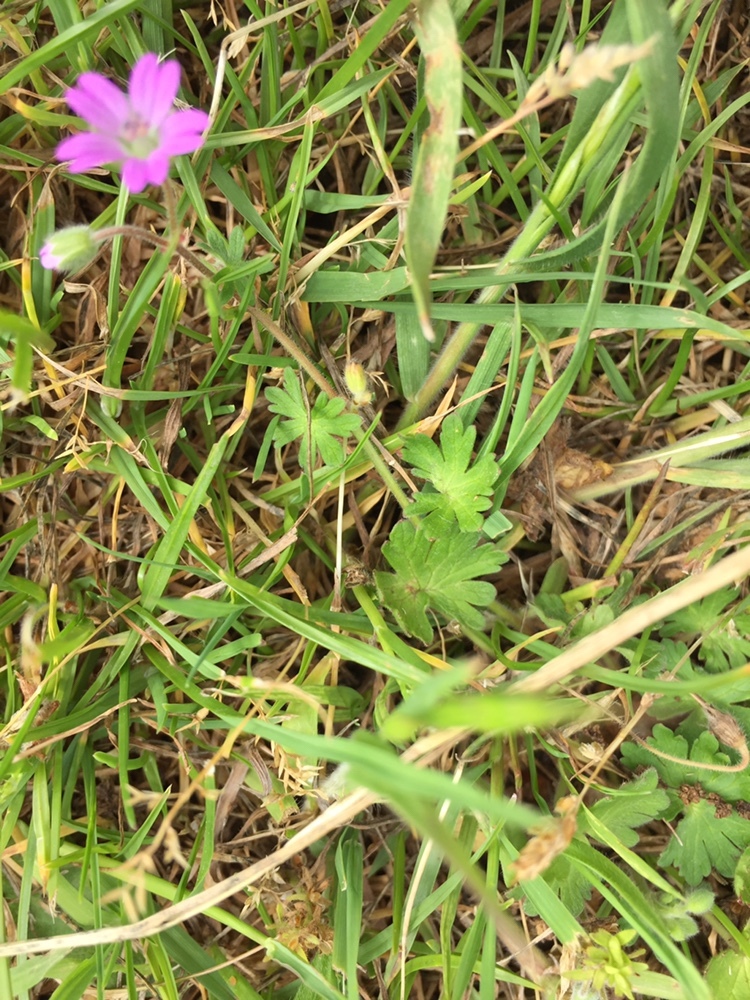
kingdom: Plantae
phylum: Tracheophyta
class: Magnoliopsida
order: Geraniales
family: Geraniaceae
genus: Geranium
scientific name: Geranium molle
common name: Dove's-foot crane's-bill
